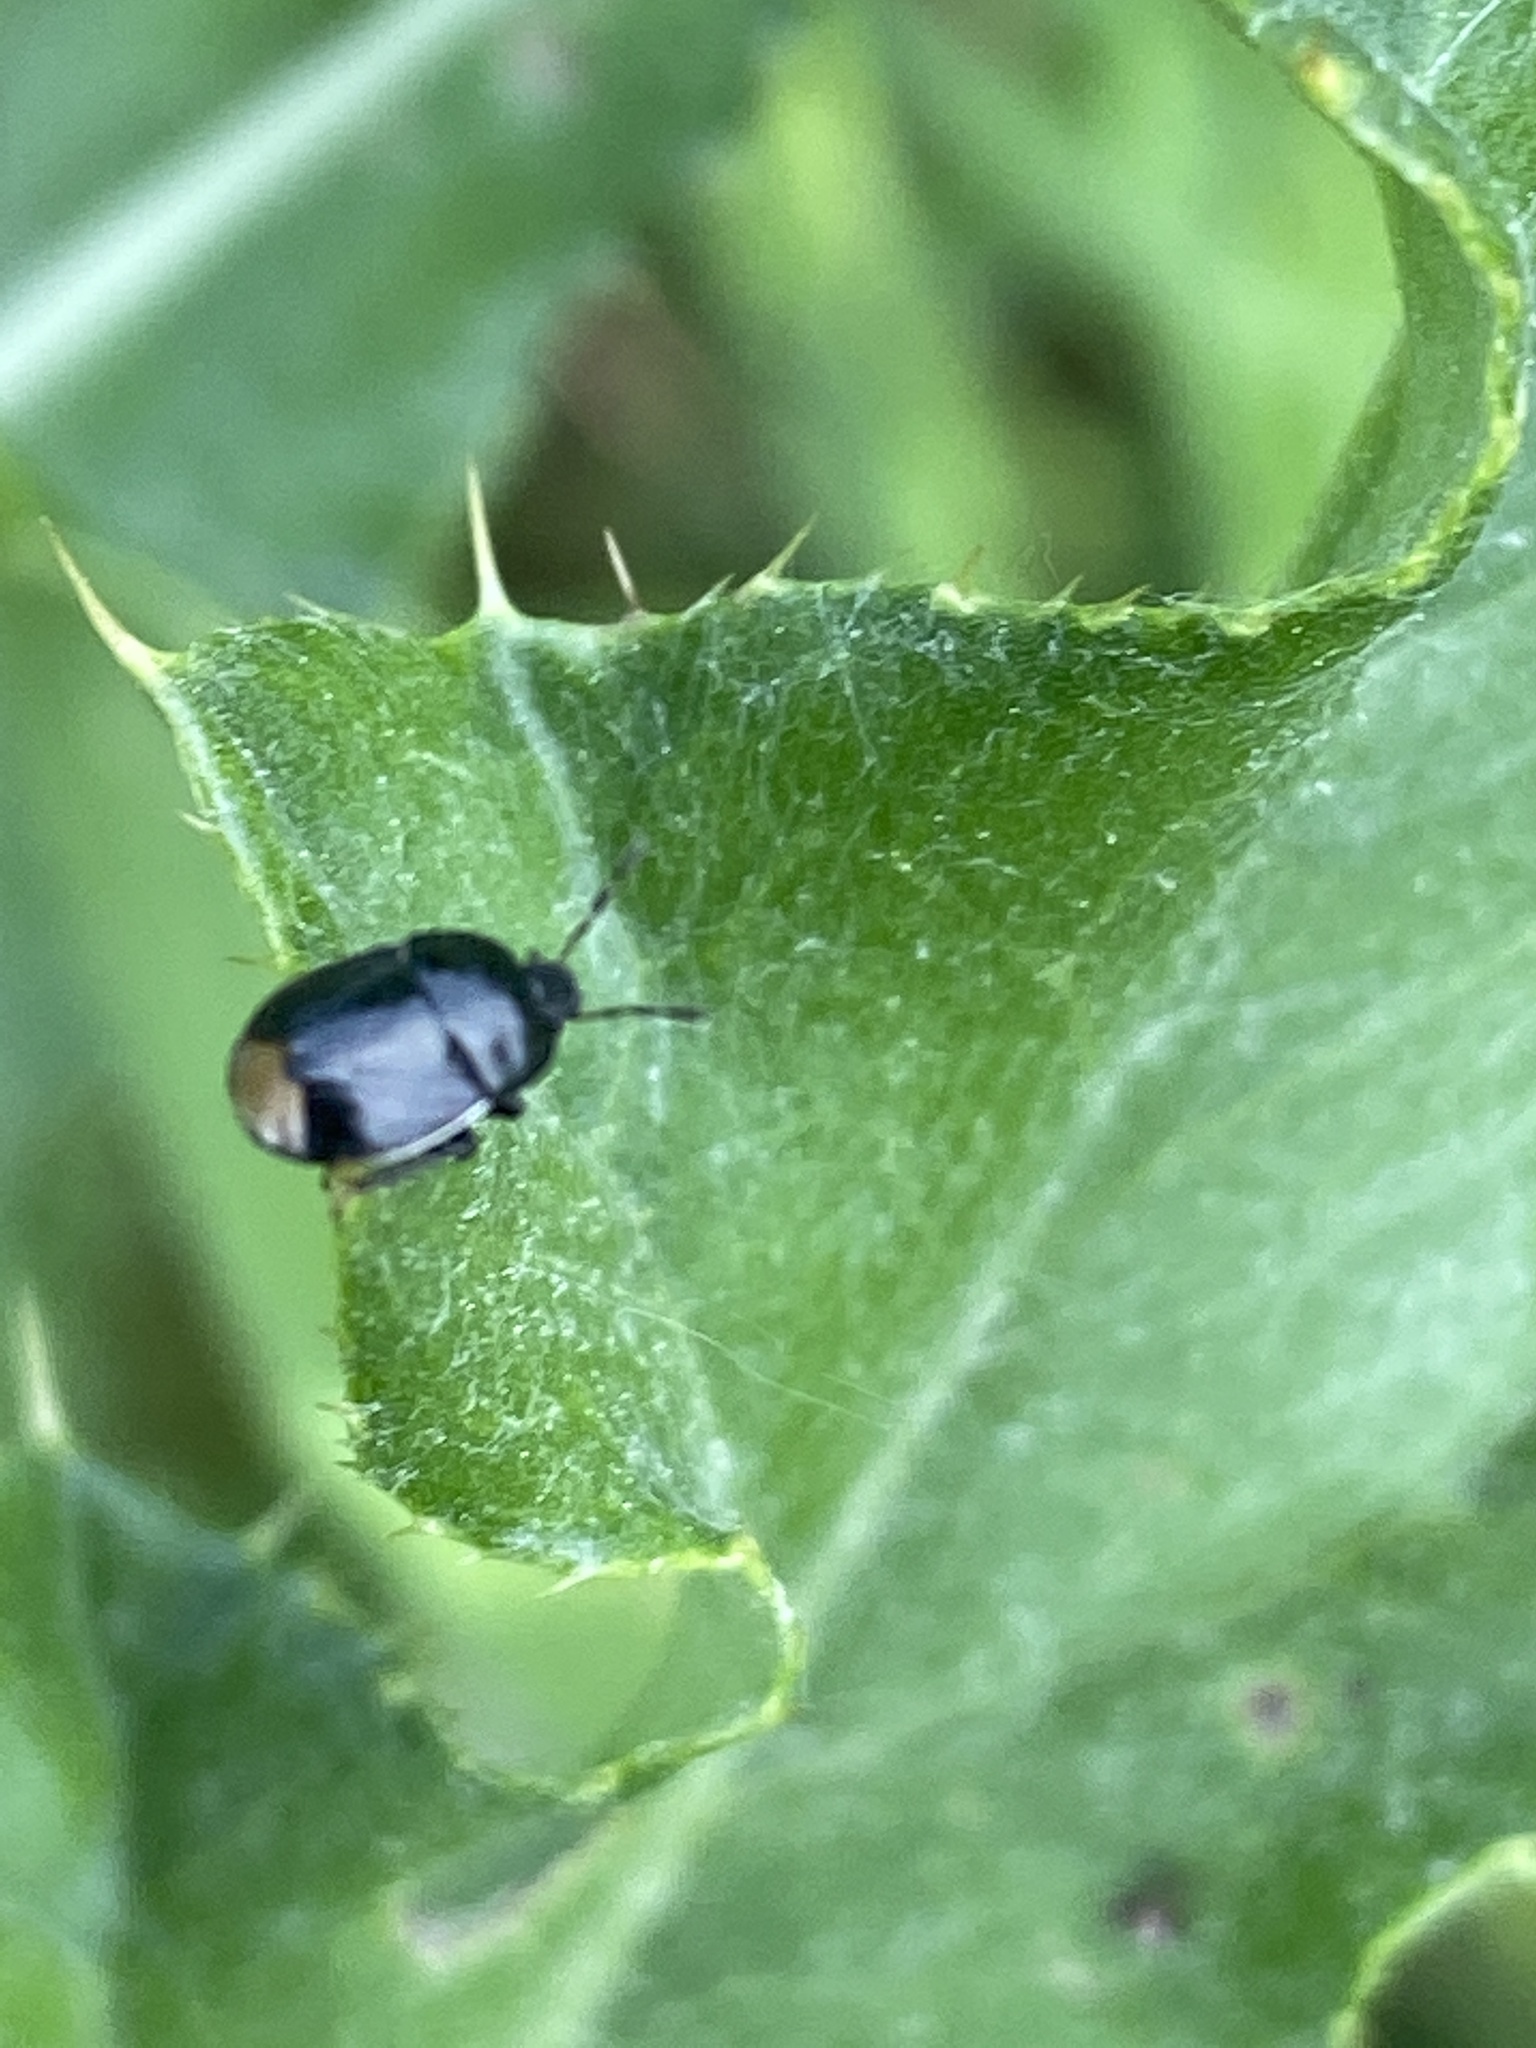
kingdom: Animalia
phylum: Arthropoda
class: Insecta
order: Hemiptera
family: Cydnidae
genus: Legnotus
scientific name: Legnotus limbosus
